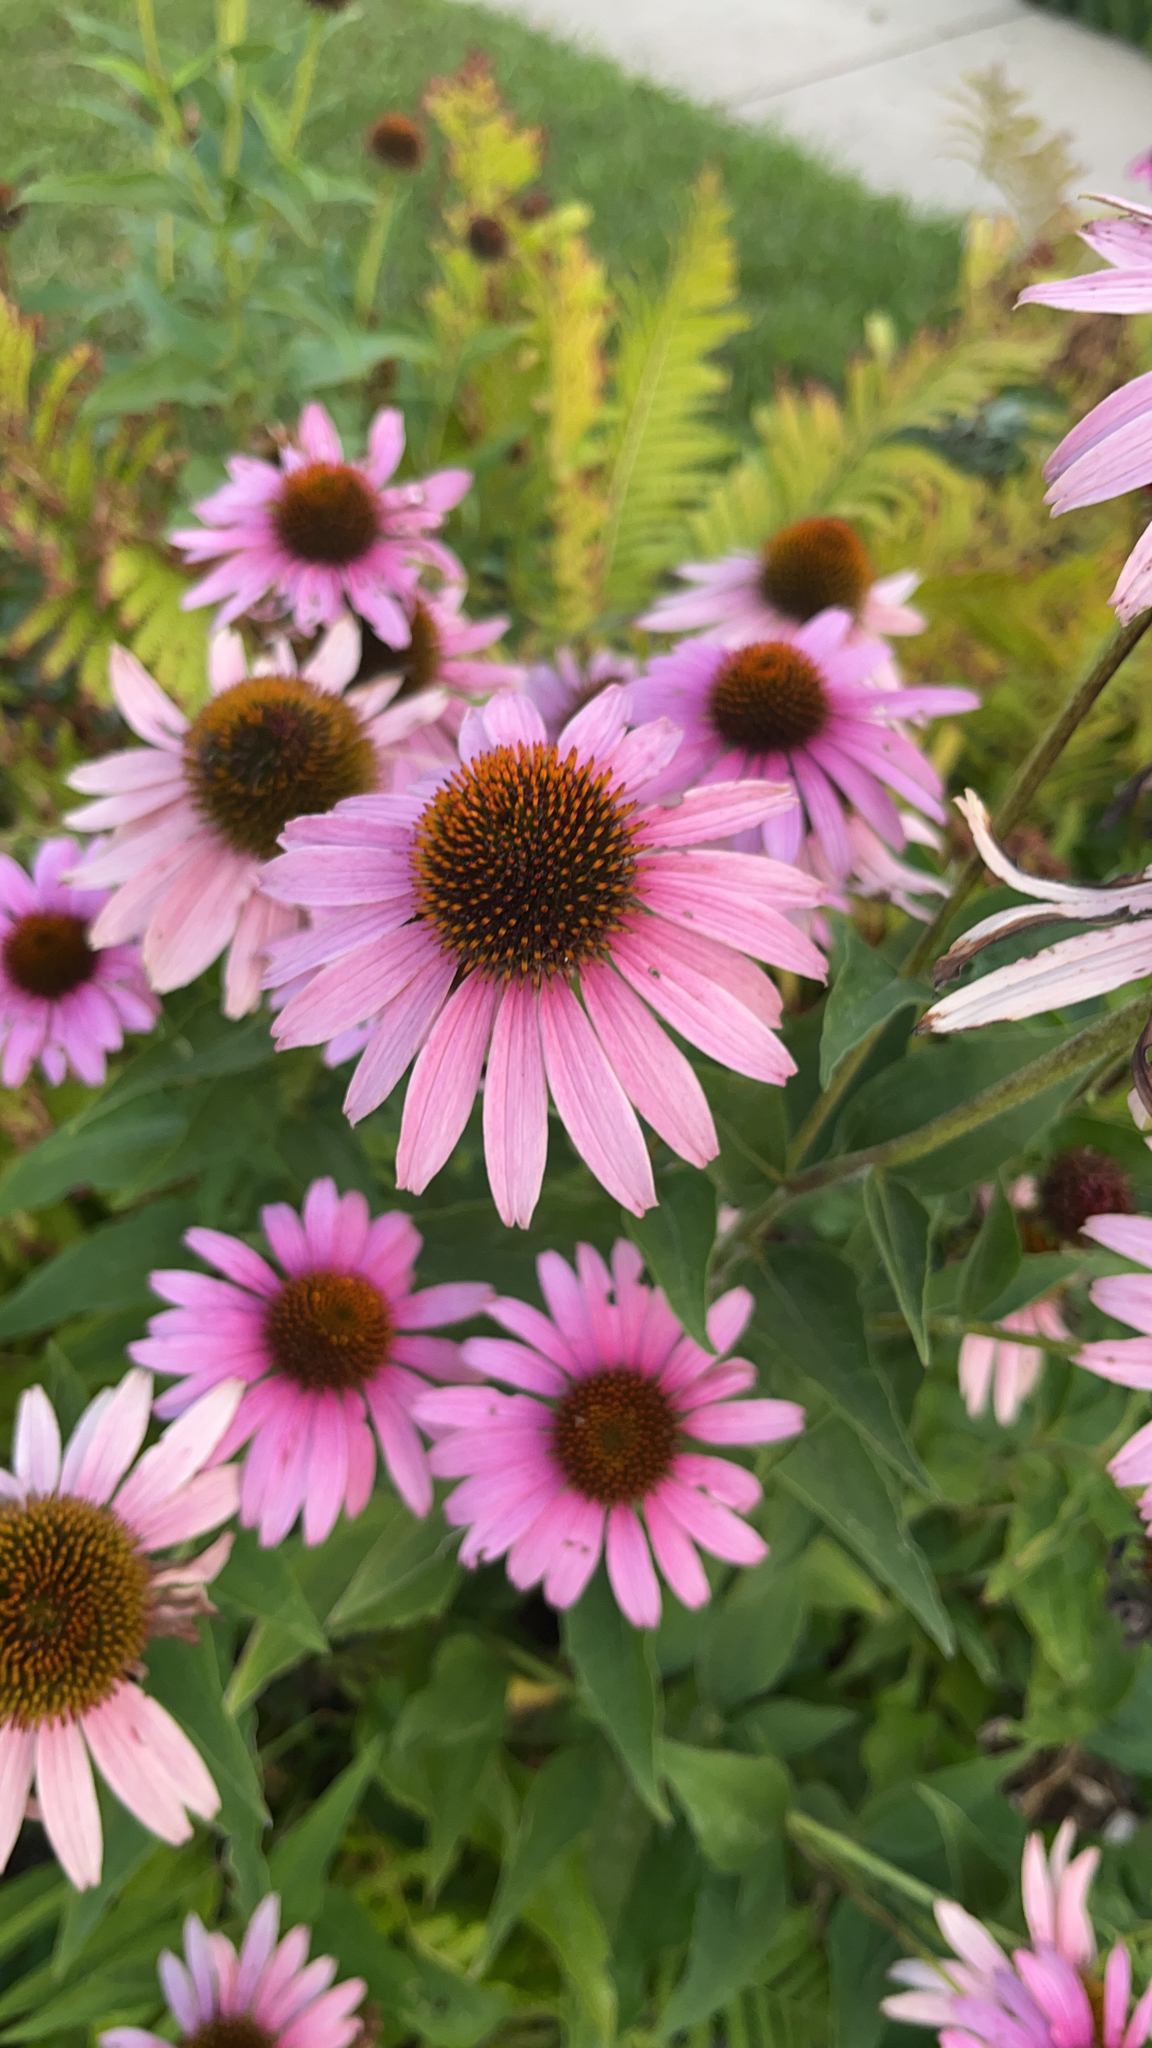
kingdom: Plantae
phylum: Tracheophyta
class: Magnoliopsida
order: Asterales
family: Asteraceae
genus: Echinacea
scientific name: Echinacea purpurea
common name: Broad-leaved purple coneflower
